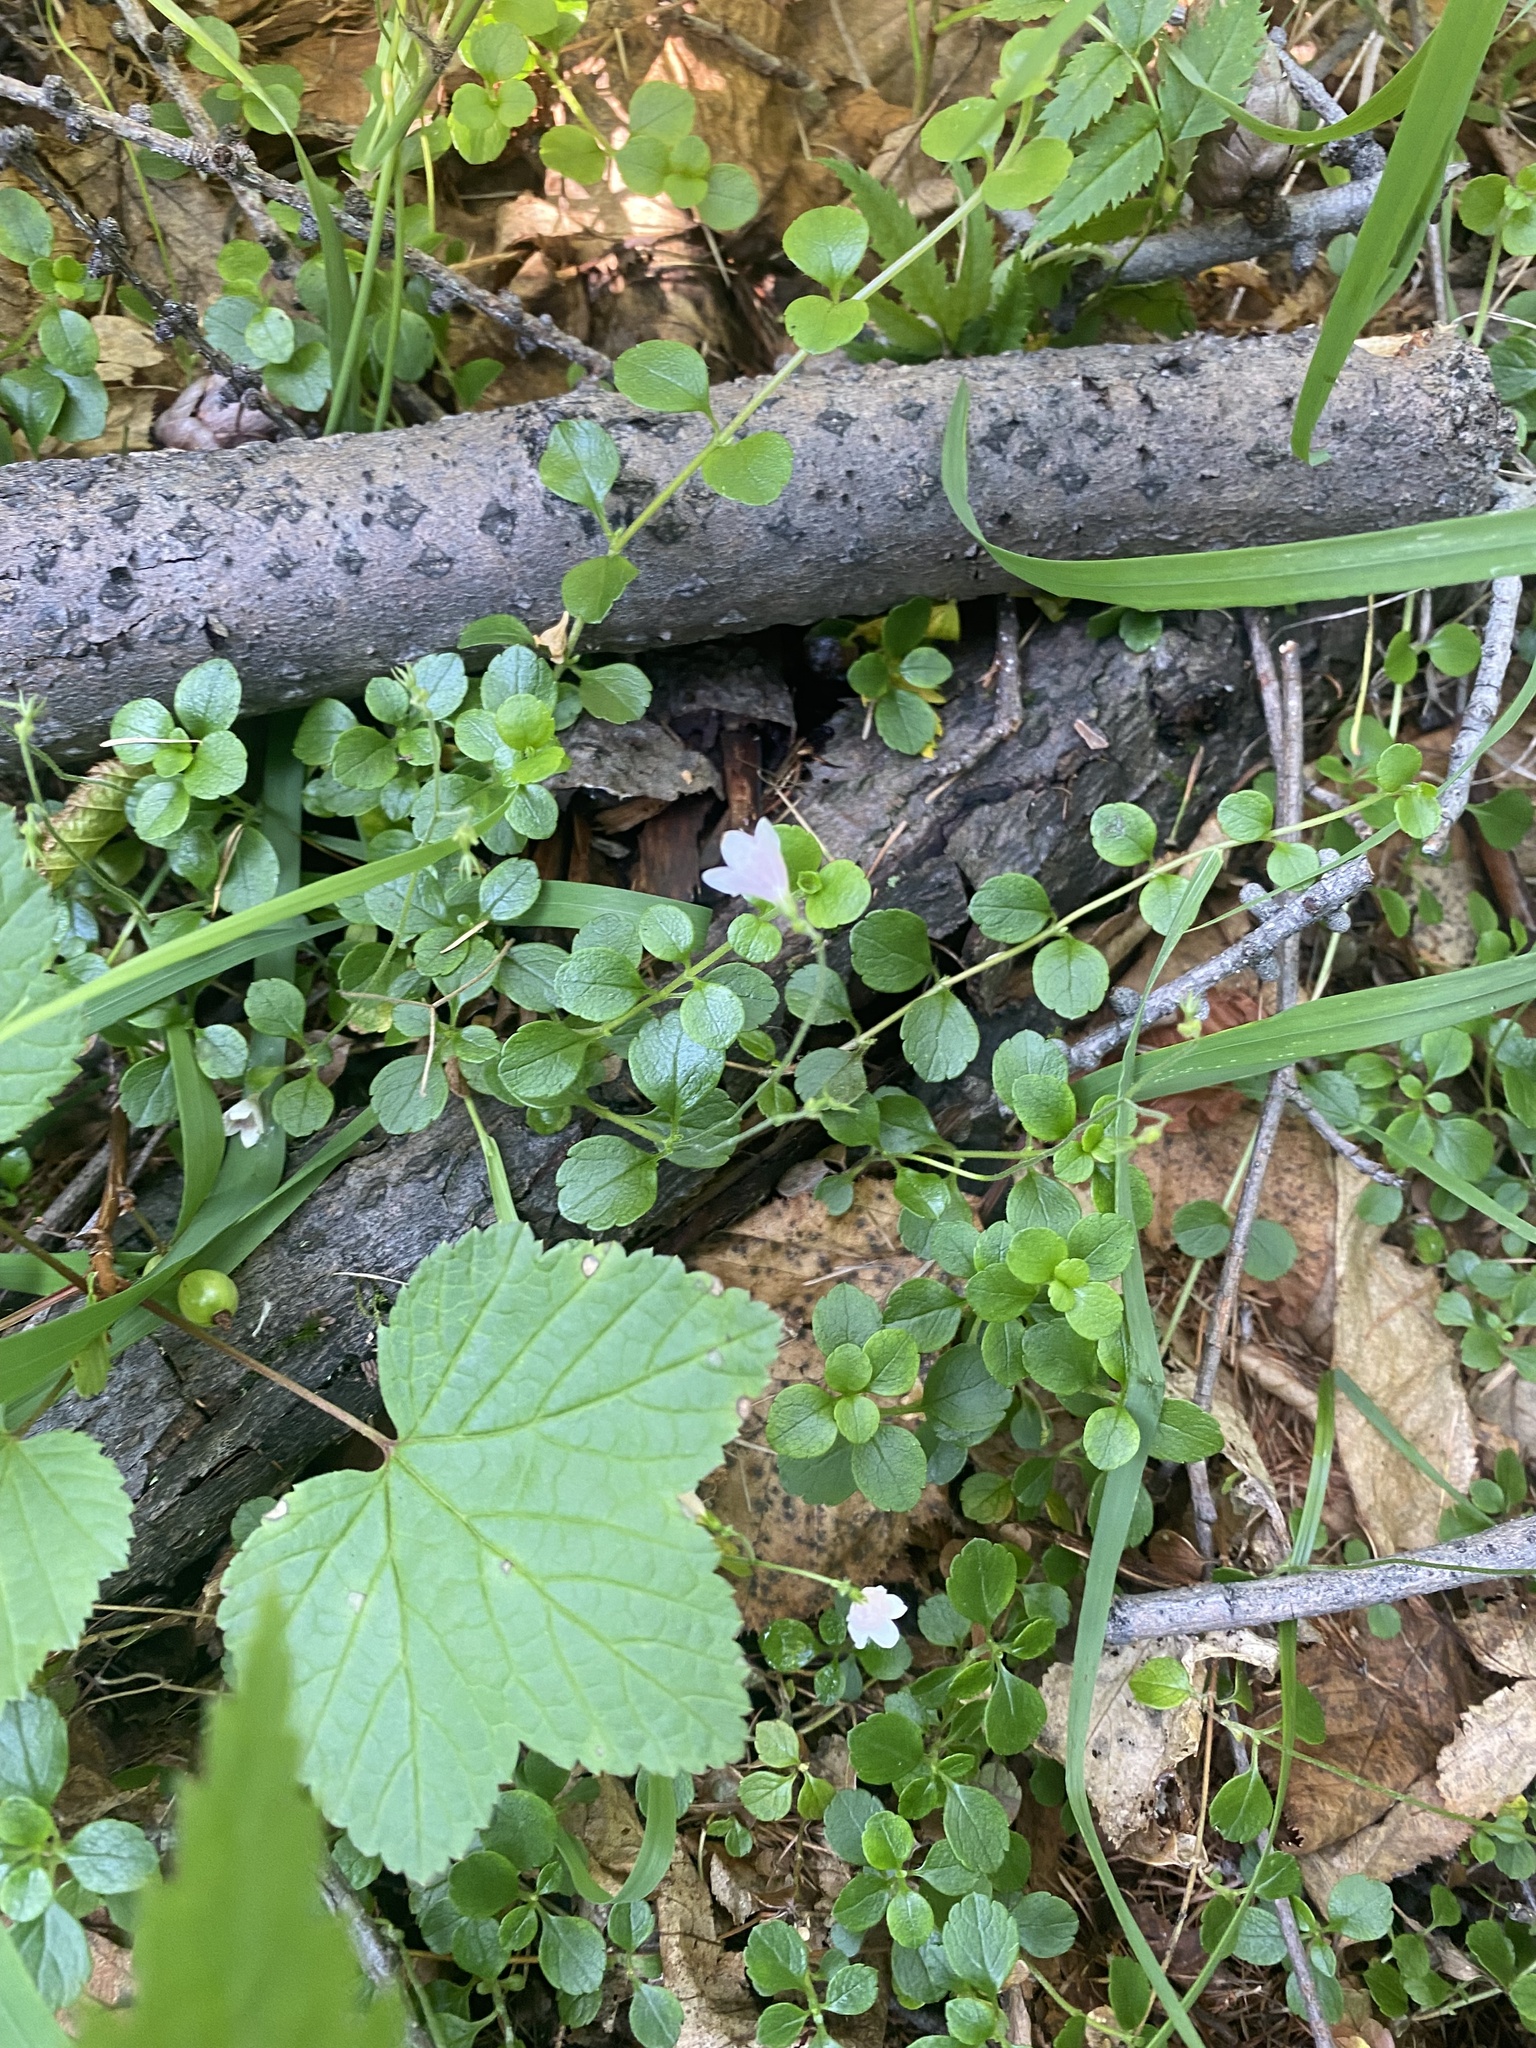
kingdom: Plantae
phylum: Tracheophyta
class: Magnoliopsida
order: Dipsacales
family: Caprifoliaceae
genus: Linnaea
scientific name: Linnaea borealis
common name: Twinflower
